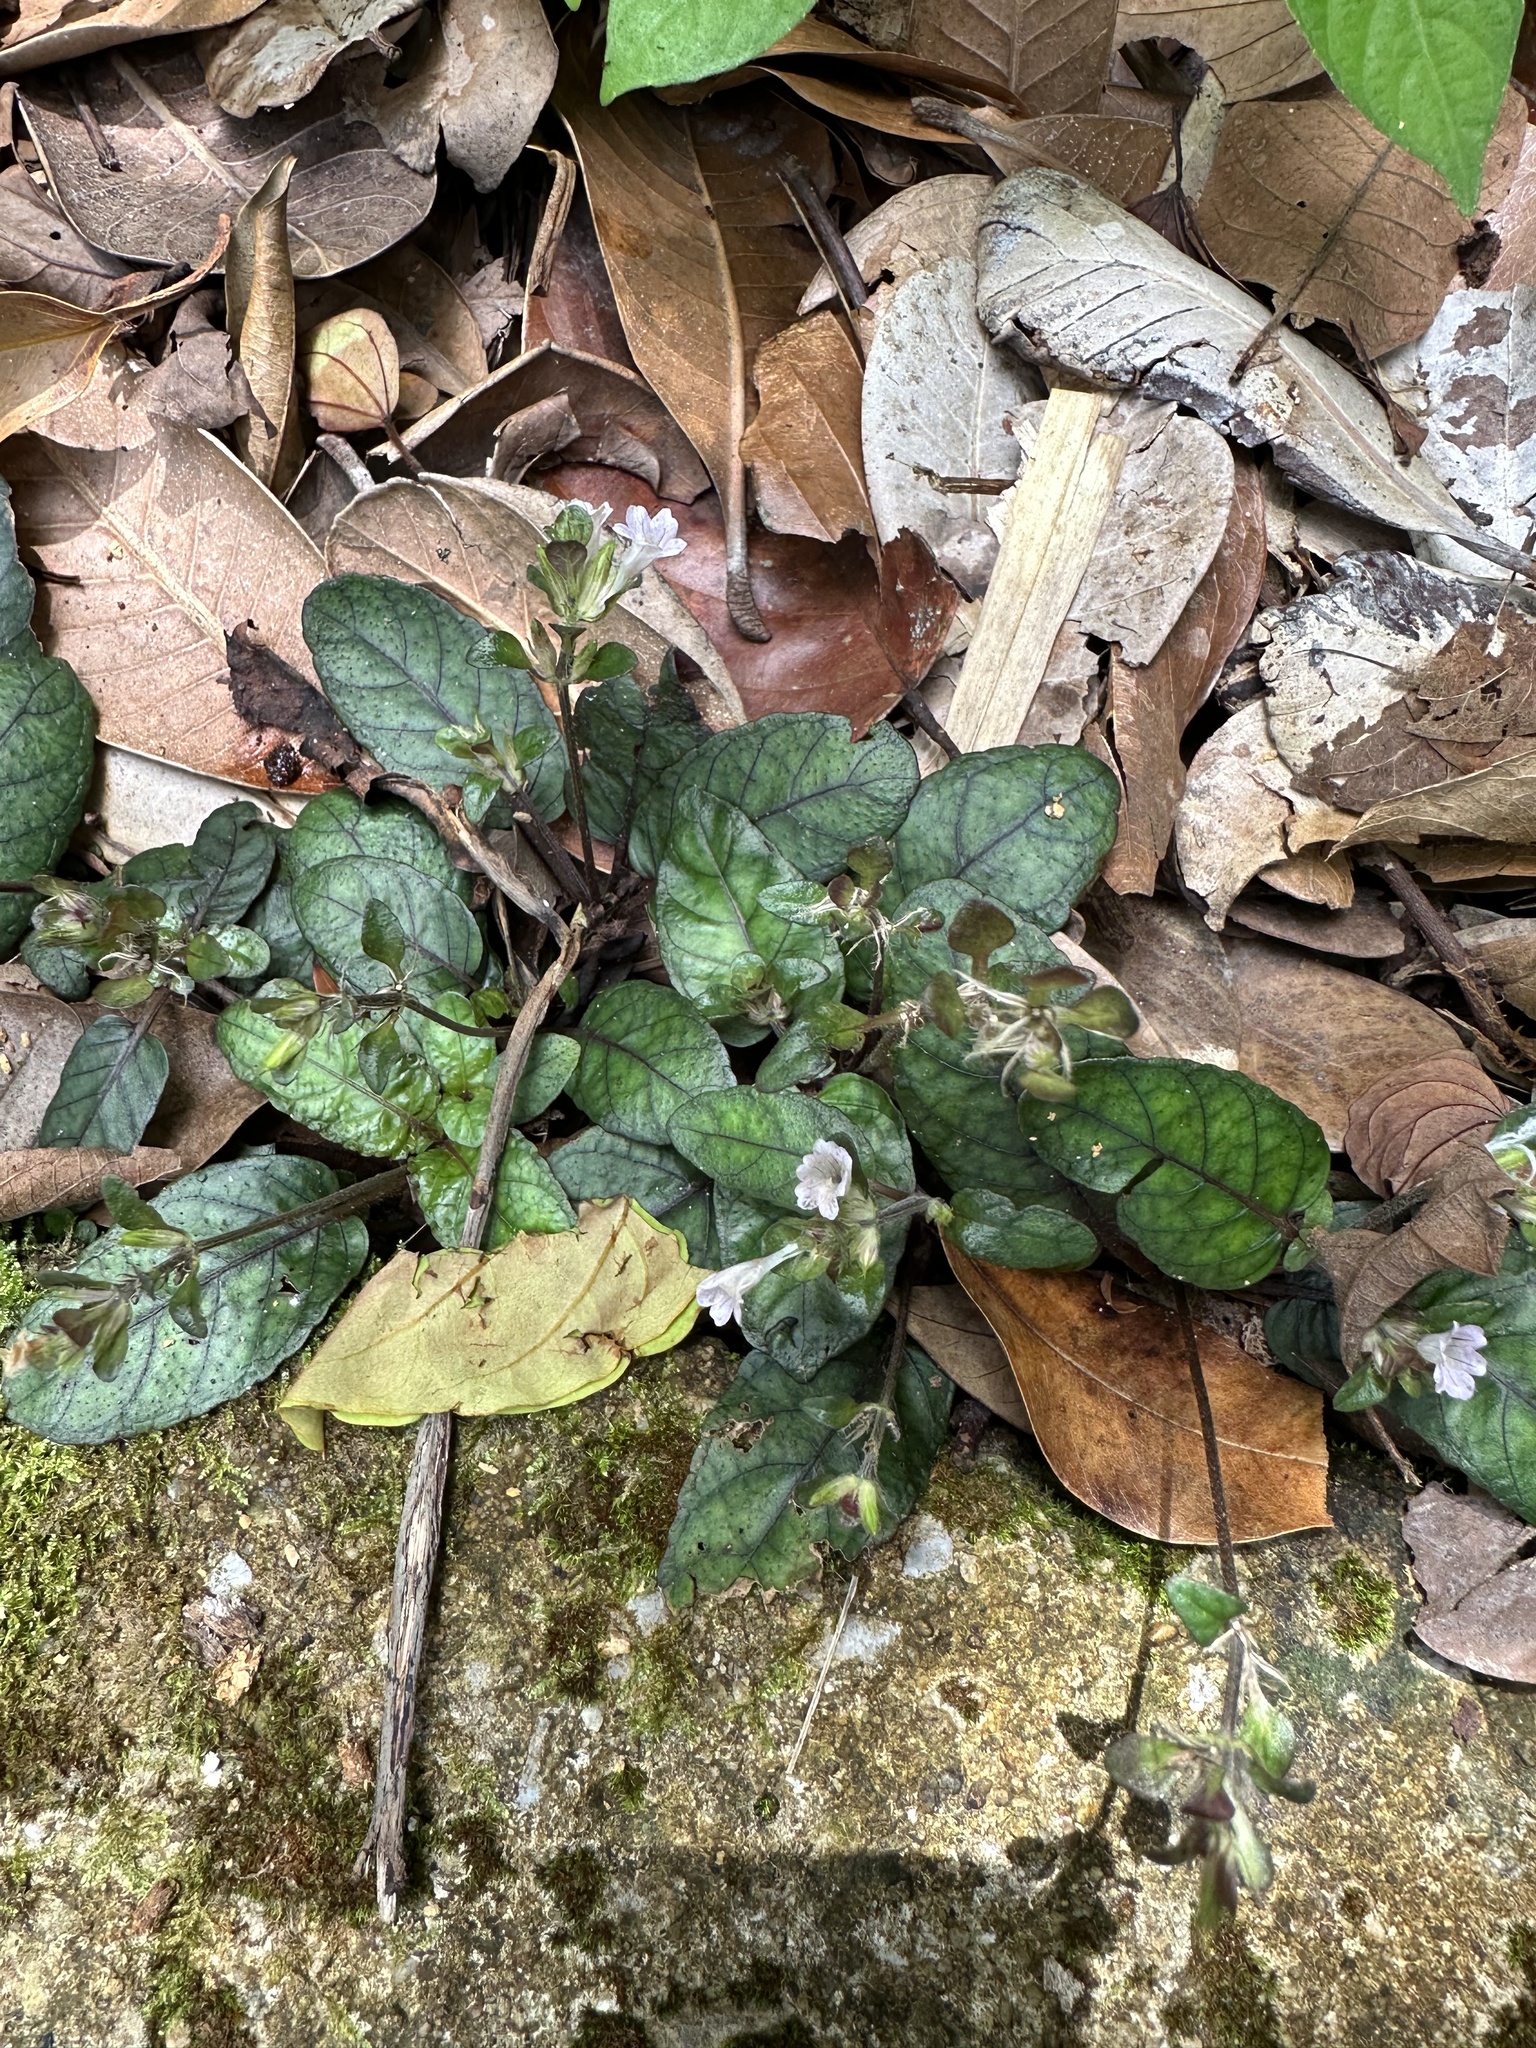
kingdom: Plantae
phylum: Tracheophyta
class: Magnoliopsida
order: Lamiales
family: Acanthaceae
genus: Strobilanthes
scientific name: Strobilanthes reptans
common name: Acanthaceae
